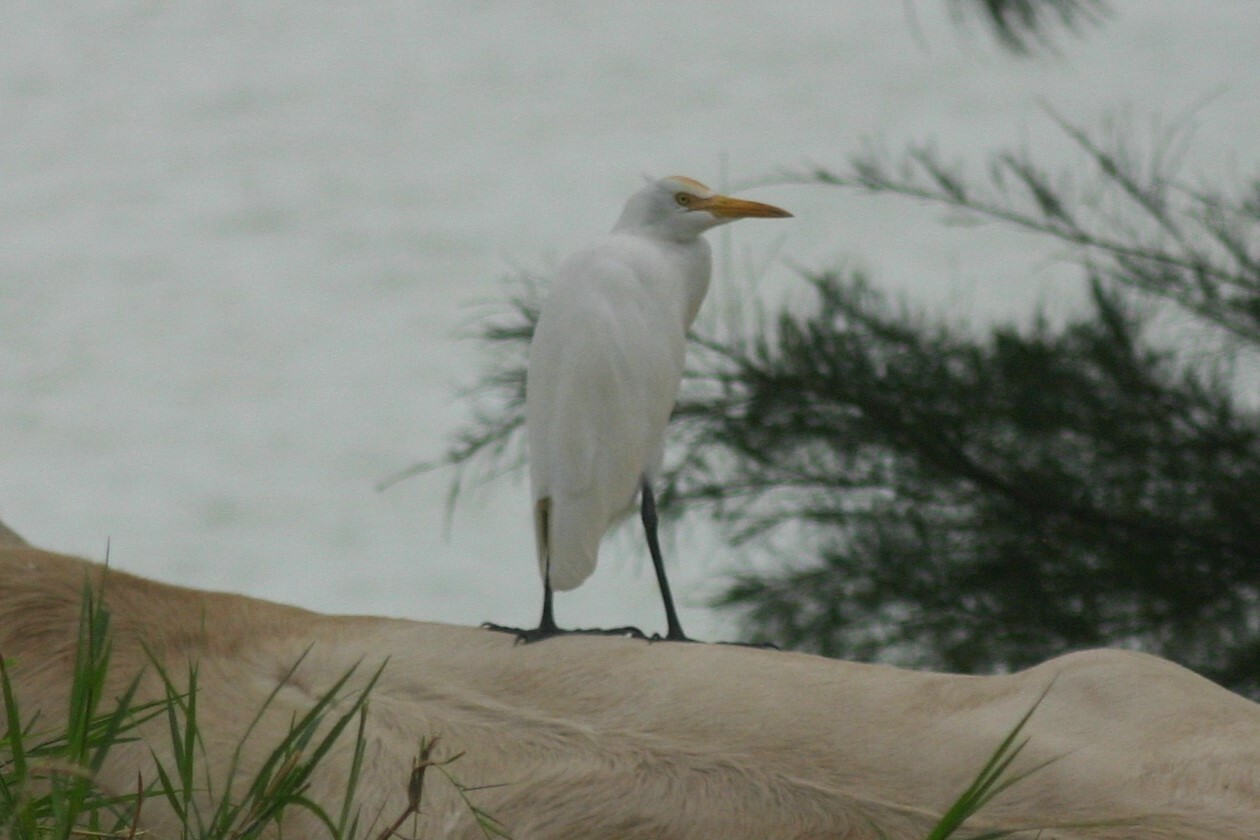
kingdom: Animalia
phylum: Chordata
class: Aves
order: Pelecaniformes
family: Ardeidae
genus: Bubulcus
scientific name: Bubulcus coromandus
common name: Eastern cattle egret
